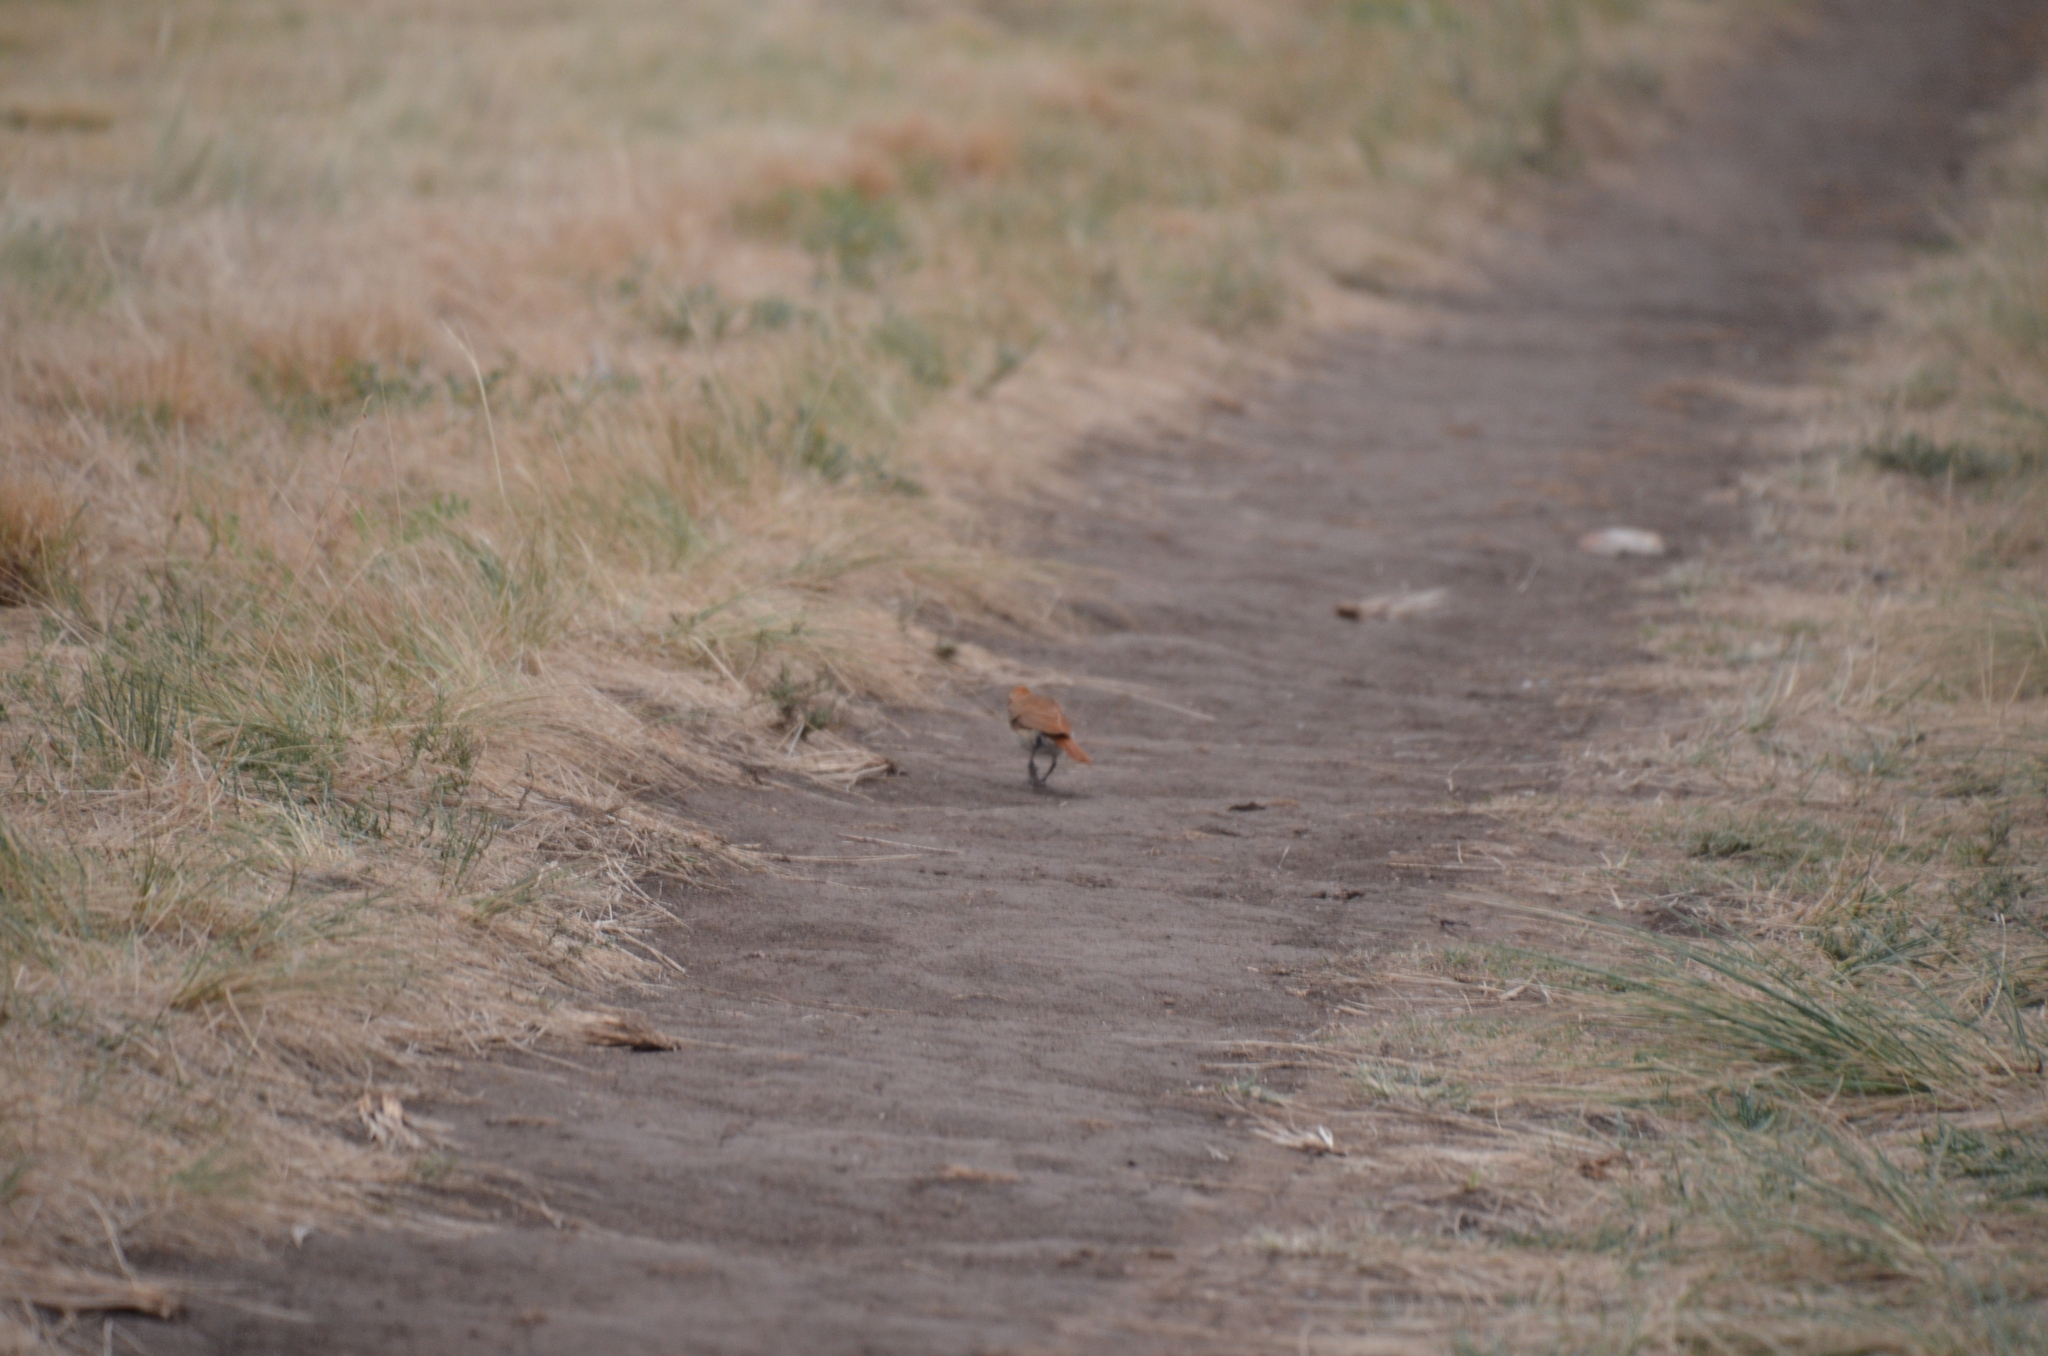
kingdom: Animalia
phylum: Chordata
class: Aves
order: Passeriformes
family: Furnariidae
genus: Furnarius
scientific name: Furnarius rufus
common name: Rufous hornero
